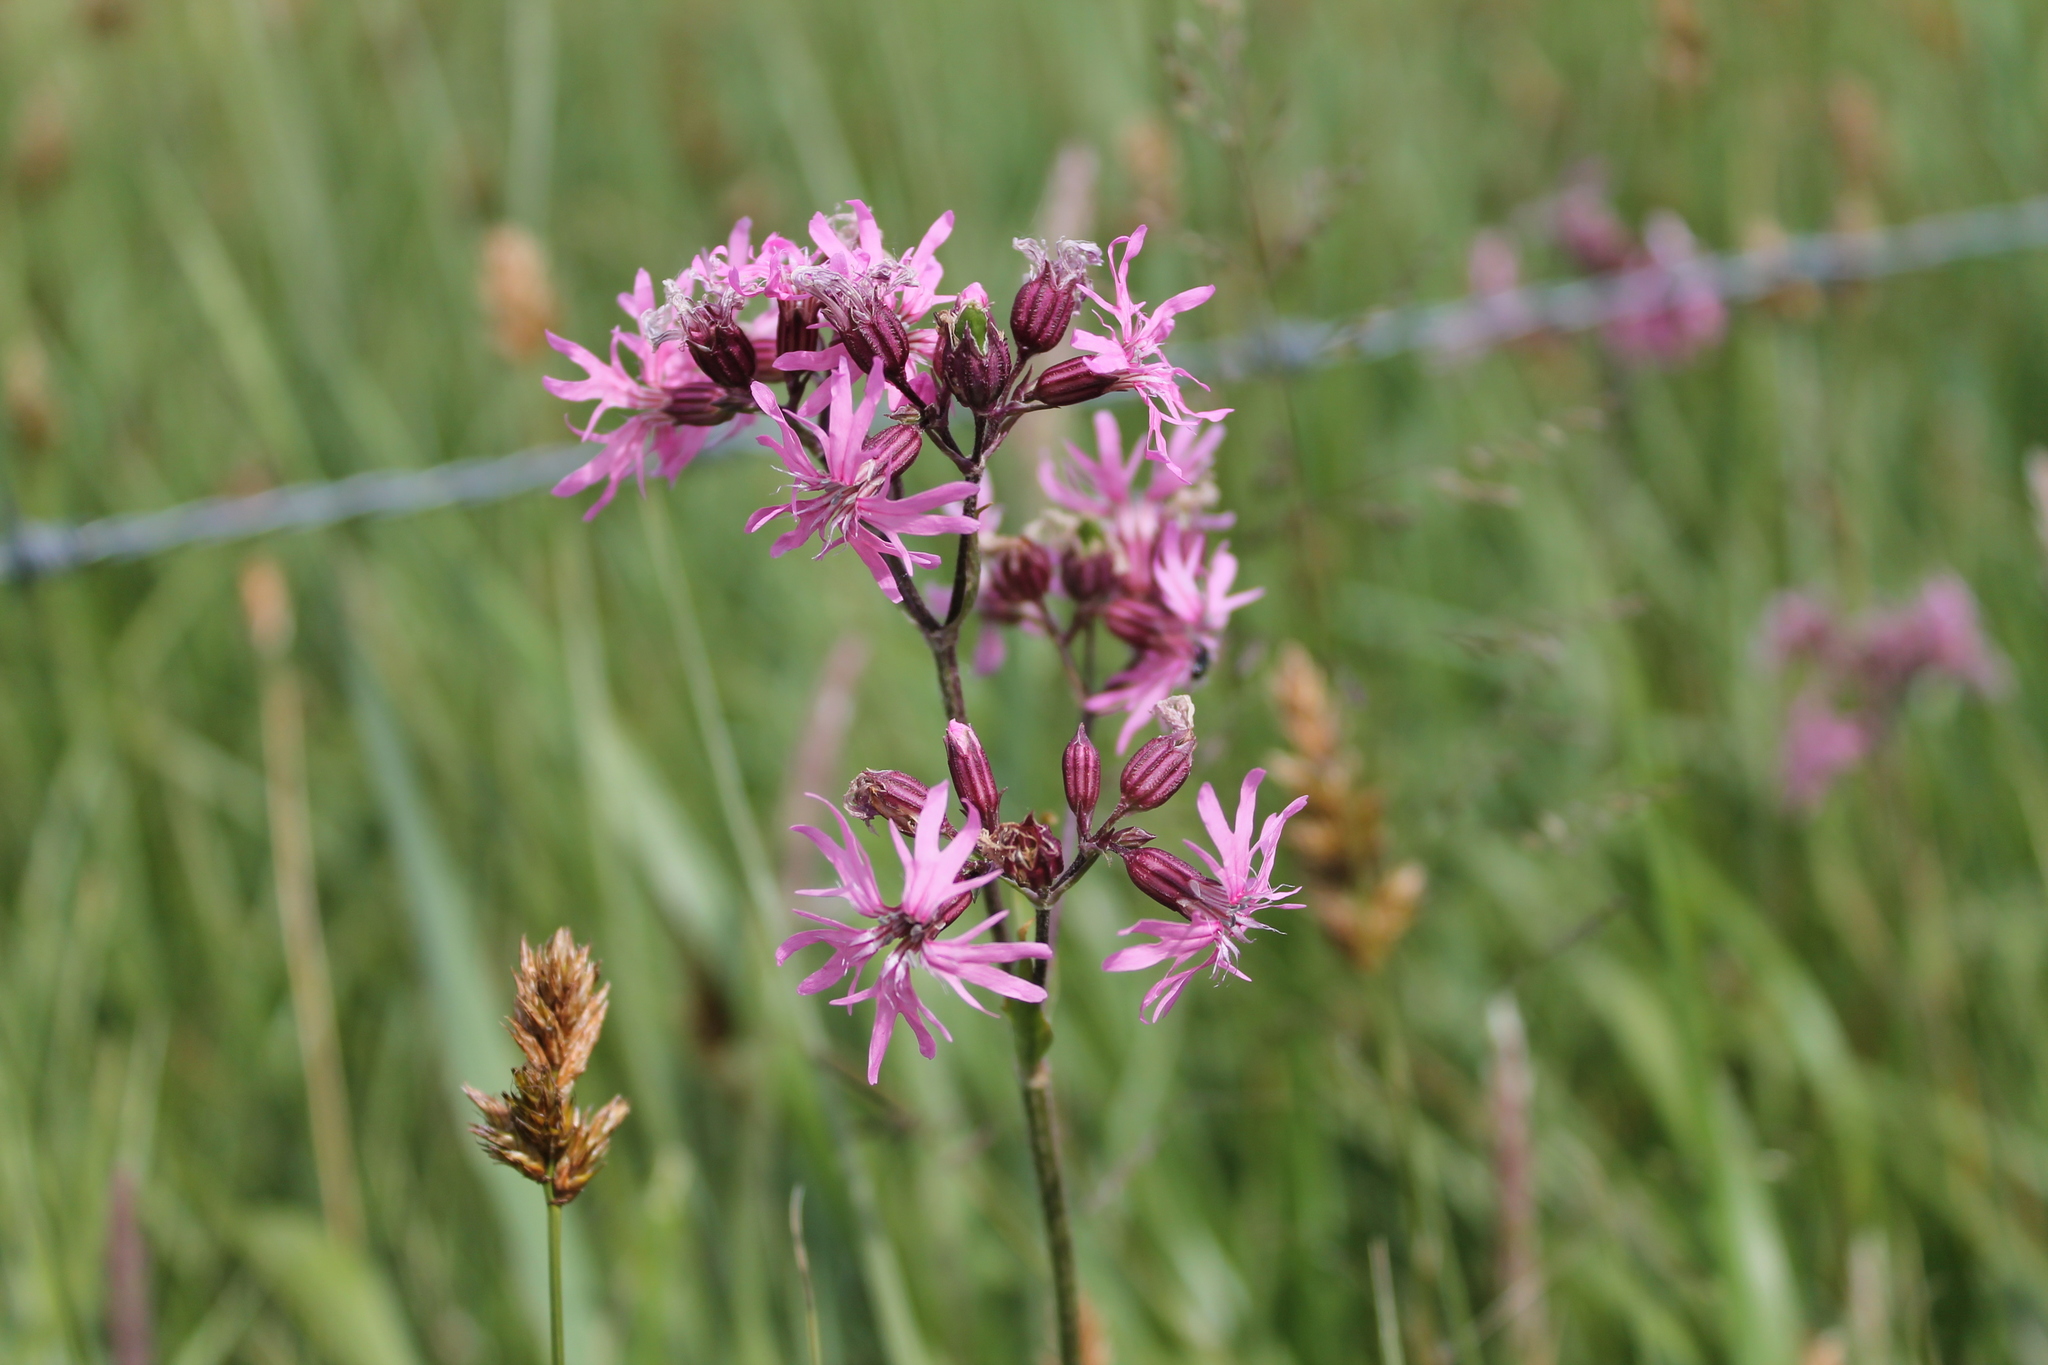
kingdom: Plantae
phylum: Tracheophyta
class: Magnoliopsida
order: Caryophyllales
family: Caryophyllaceae
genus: Silene
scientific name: Silene flos-cuculi
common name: Ragged-robin
